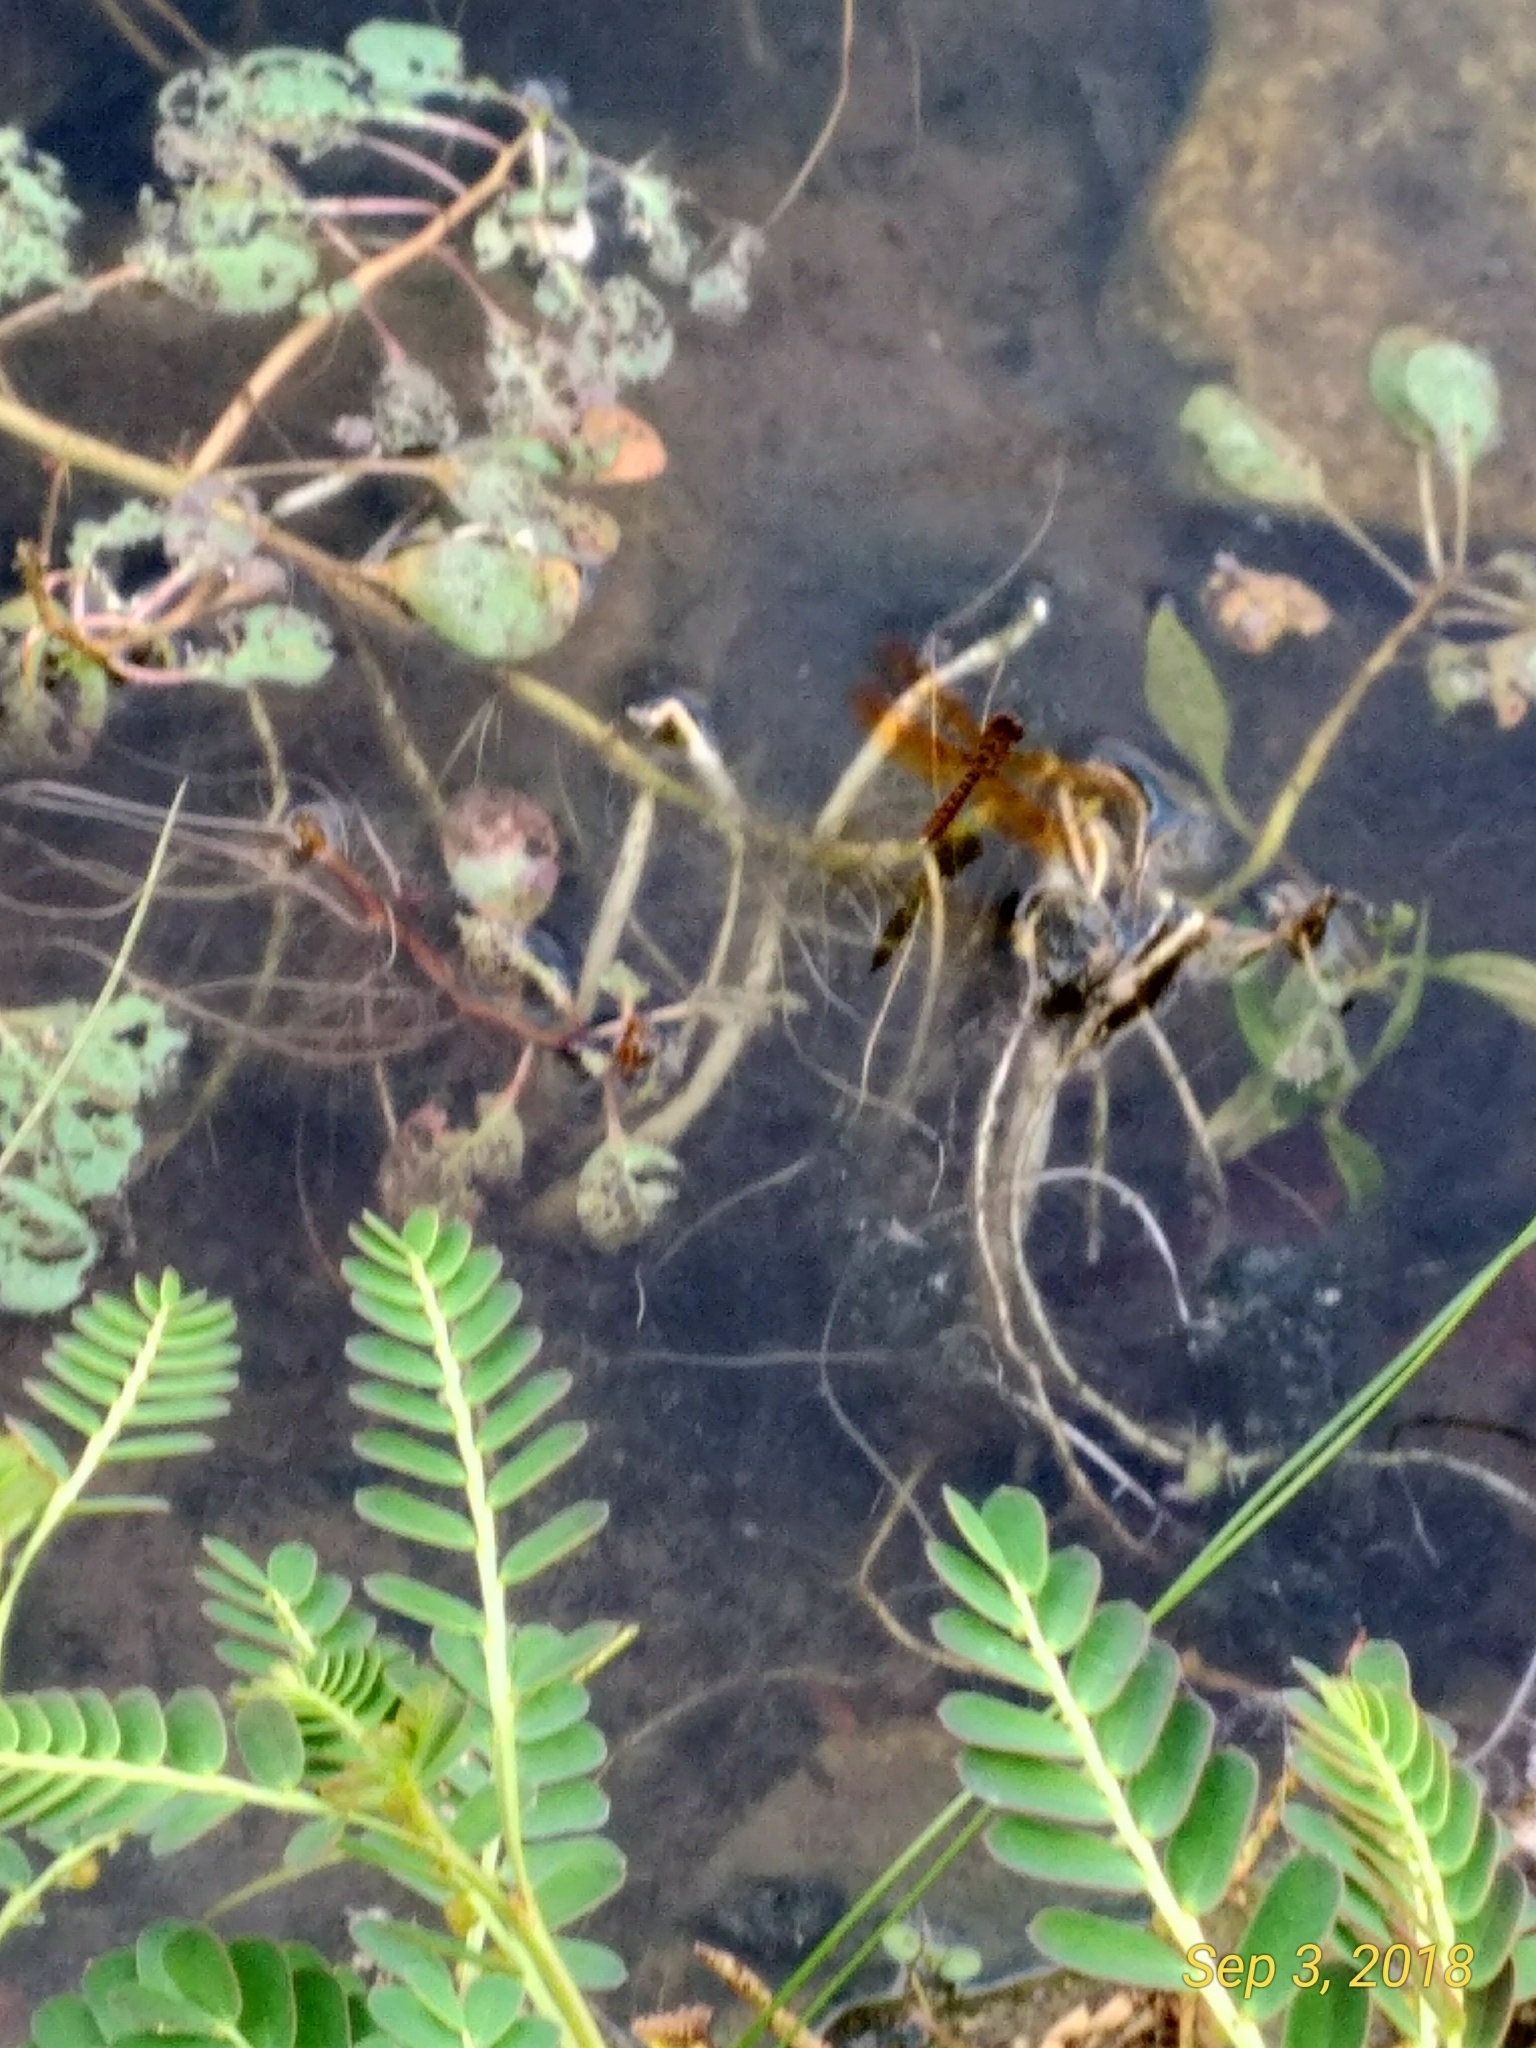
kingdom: Animalia
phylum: Arthropoda
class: Insecta
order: Odonata
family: Libellulidae
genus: Perithemis
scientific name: Perithemis tenera
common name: Eastern amberwing
